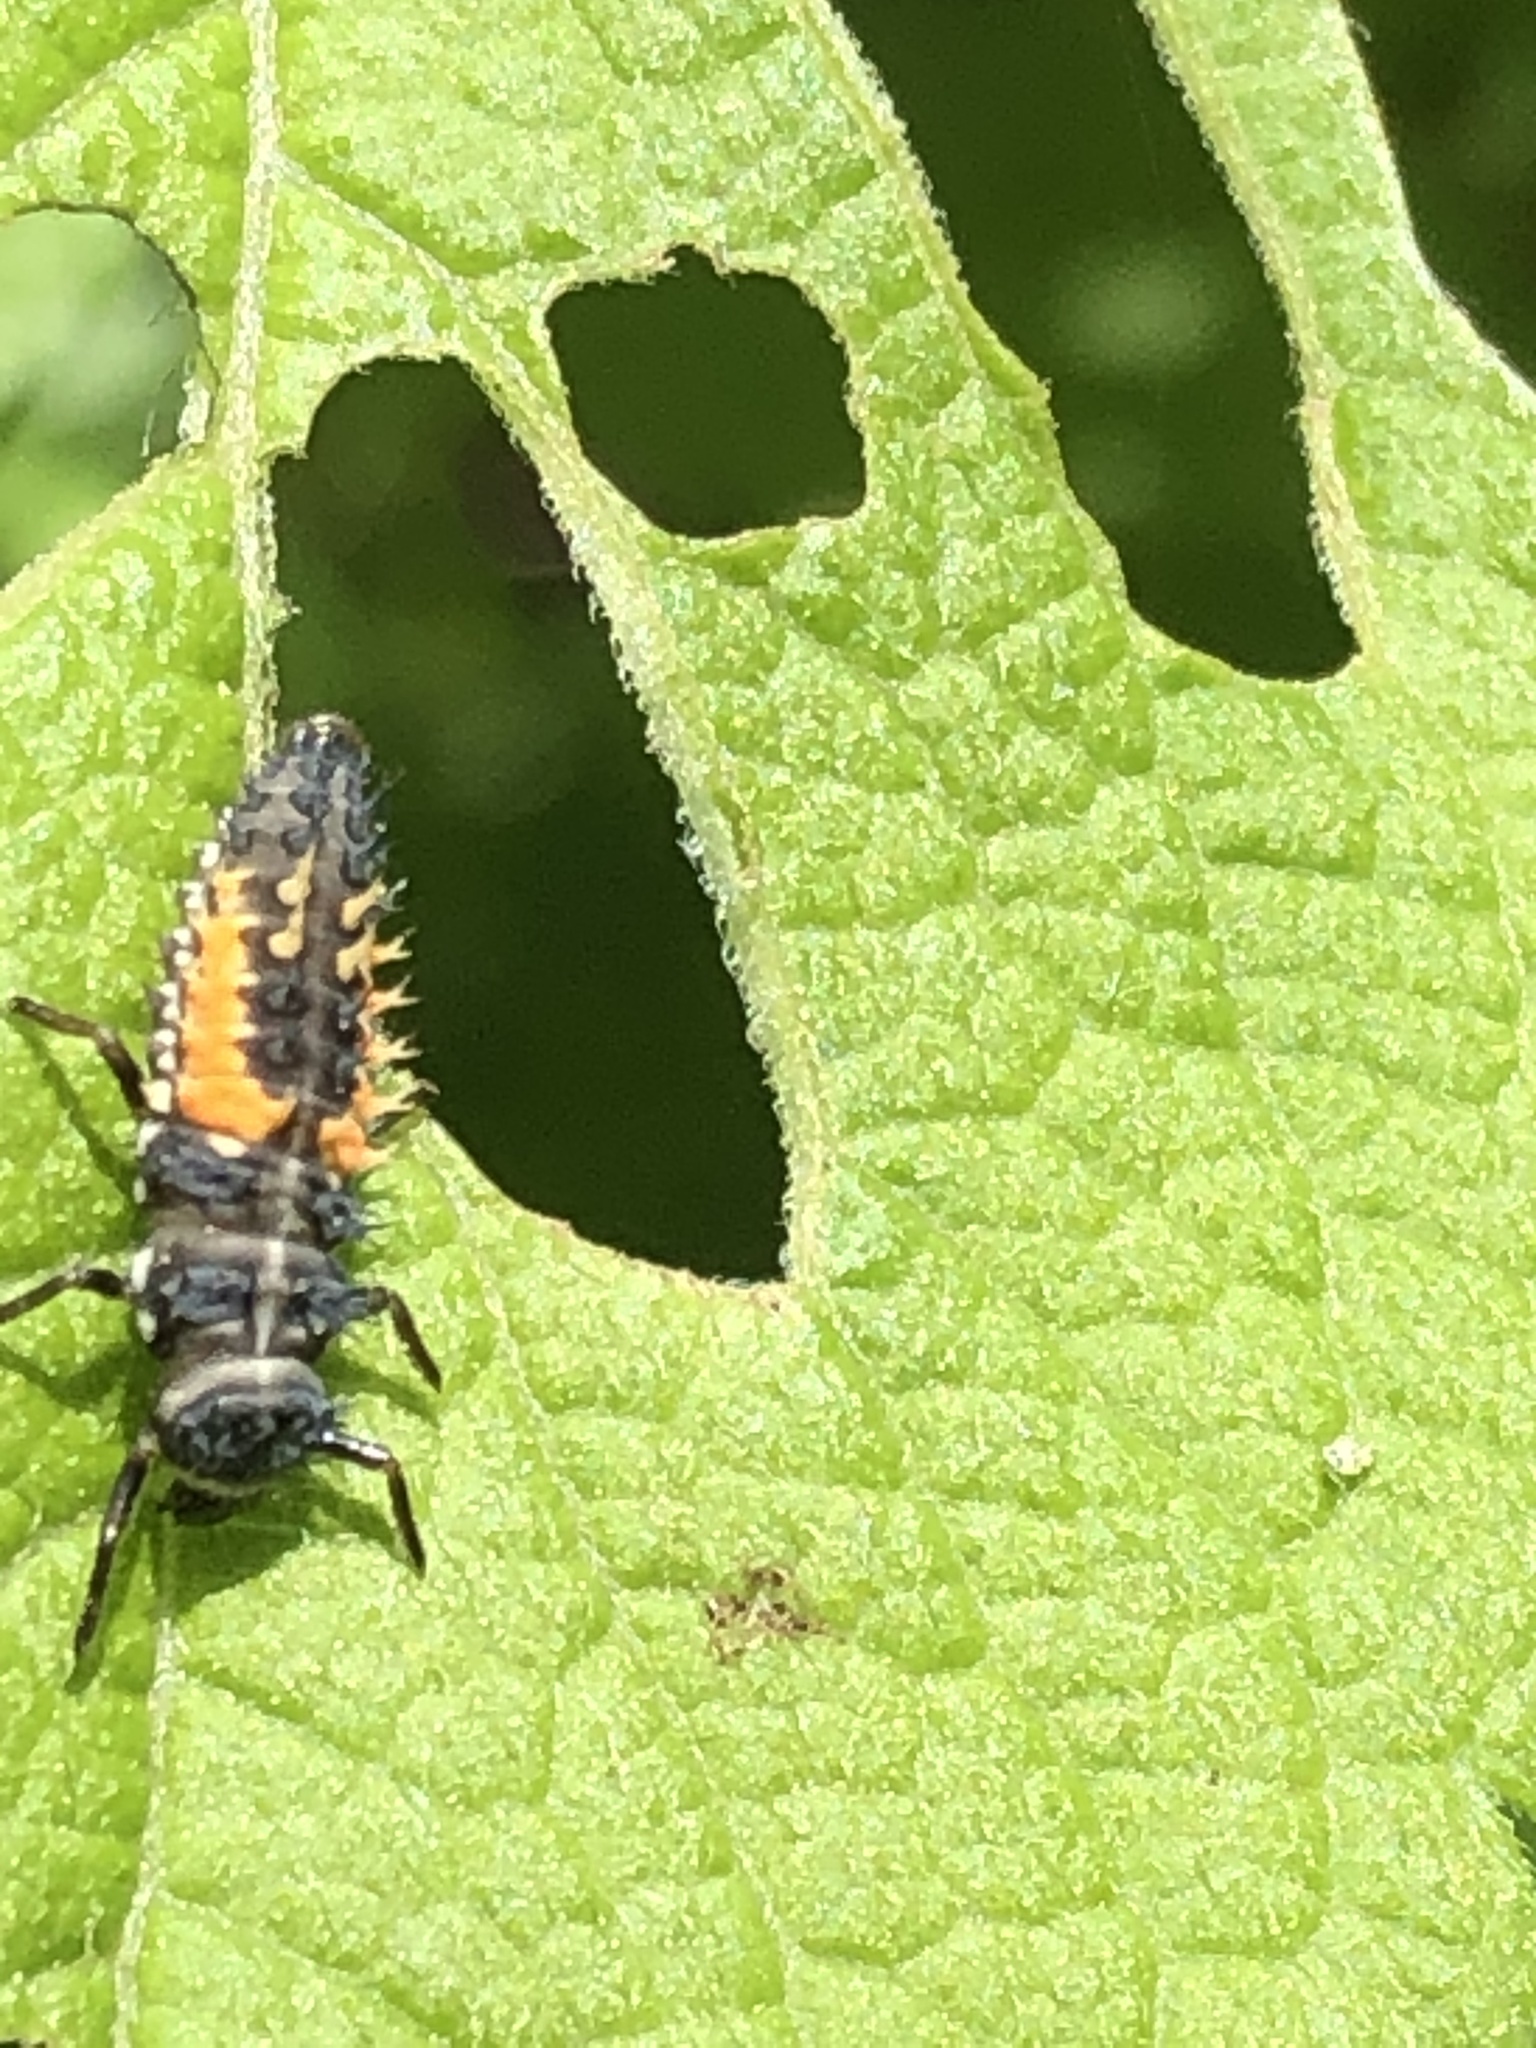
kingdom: Animalia
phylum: Arthropoda
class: Insecta
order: Coleoptera
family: Coccinellidae
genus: Harmonia
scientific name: Harmonia axyridis
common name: Harlequin ladybird
